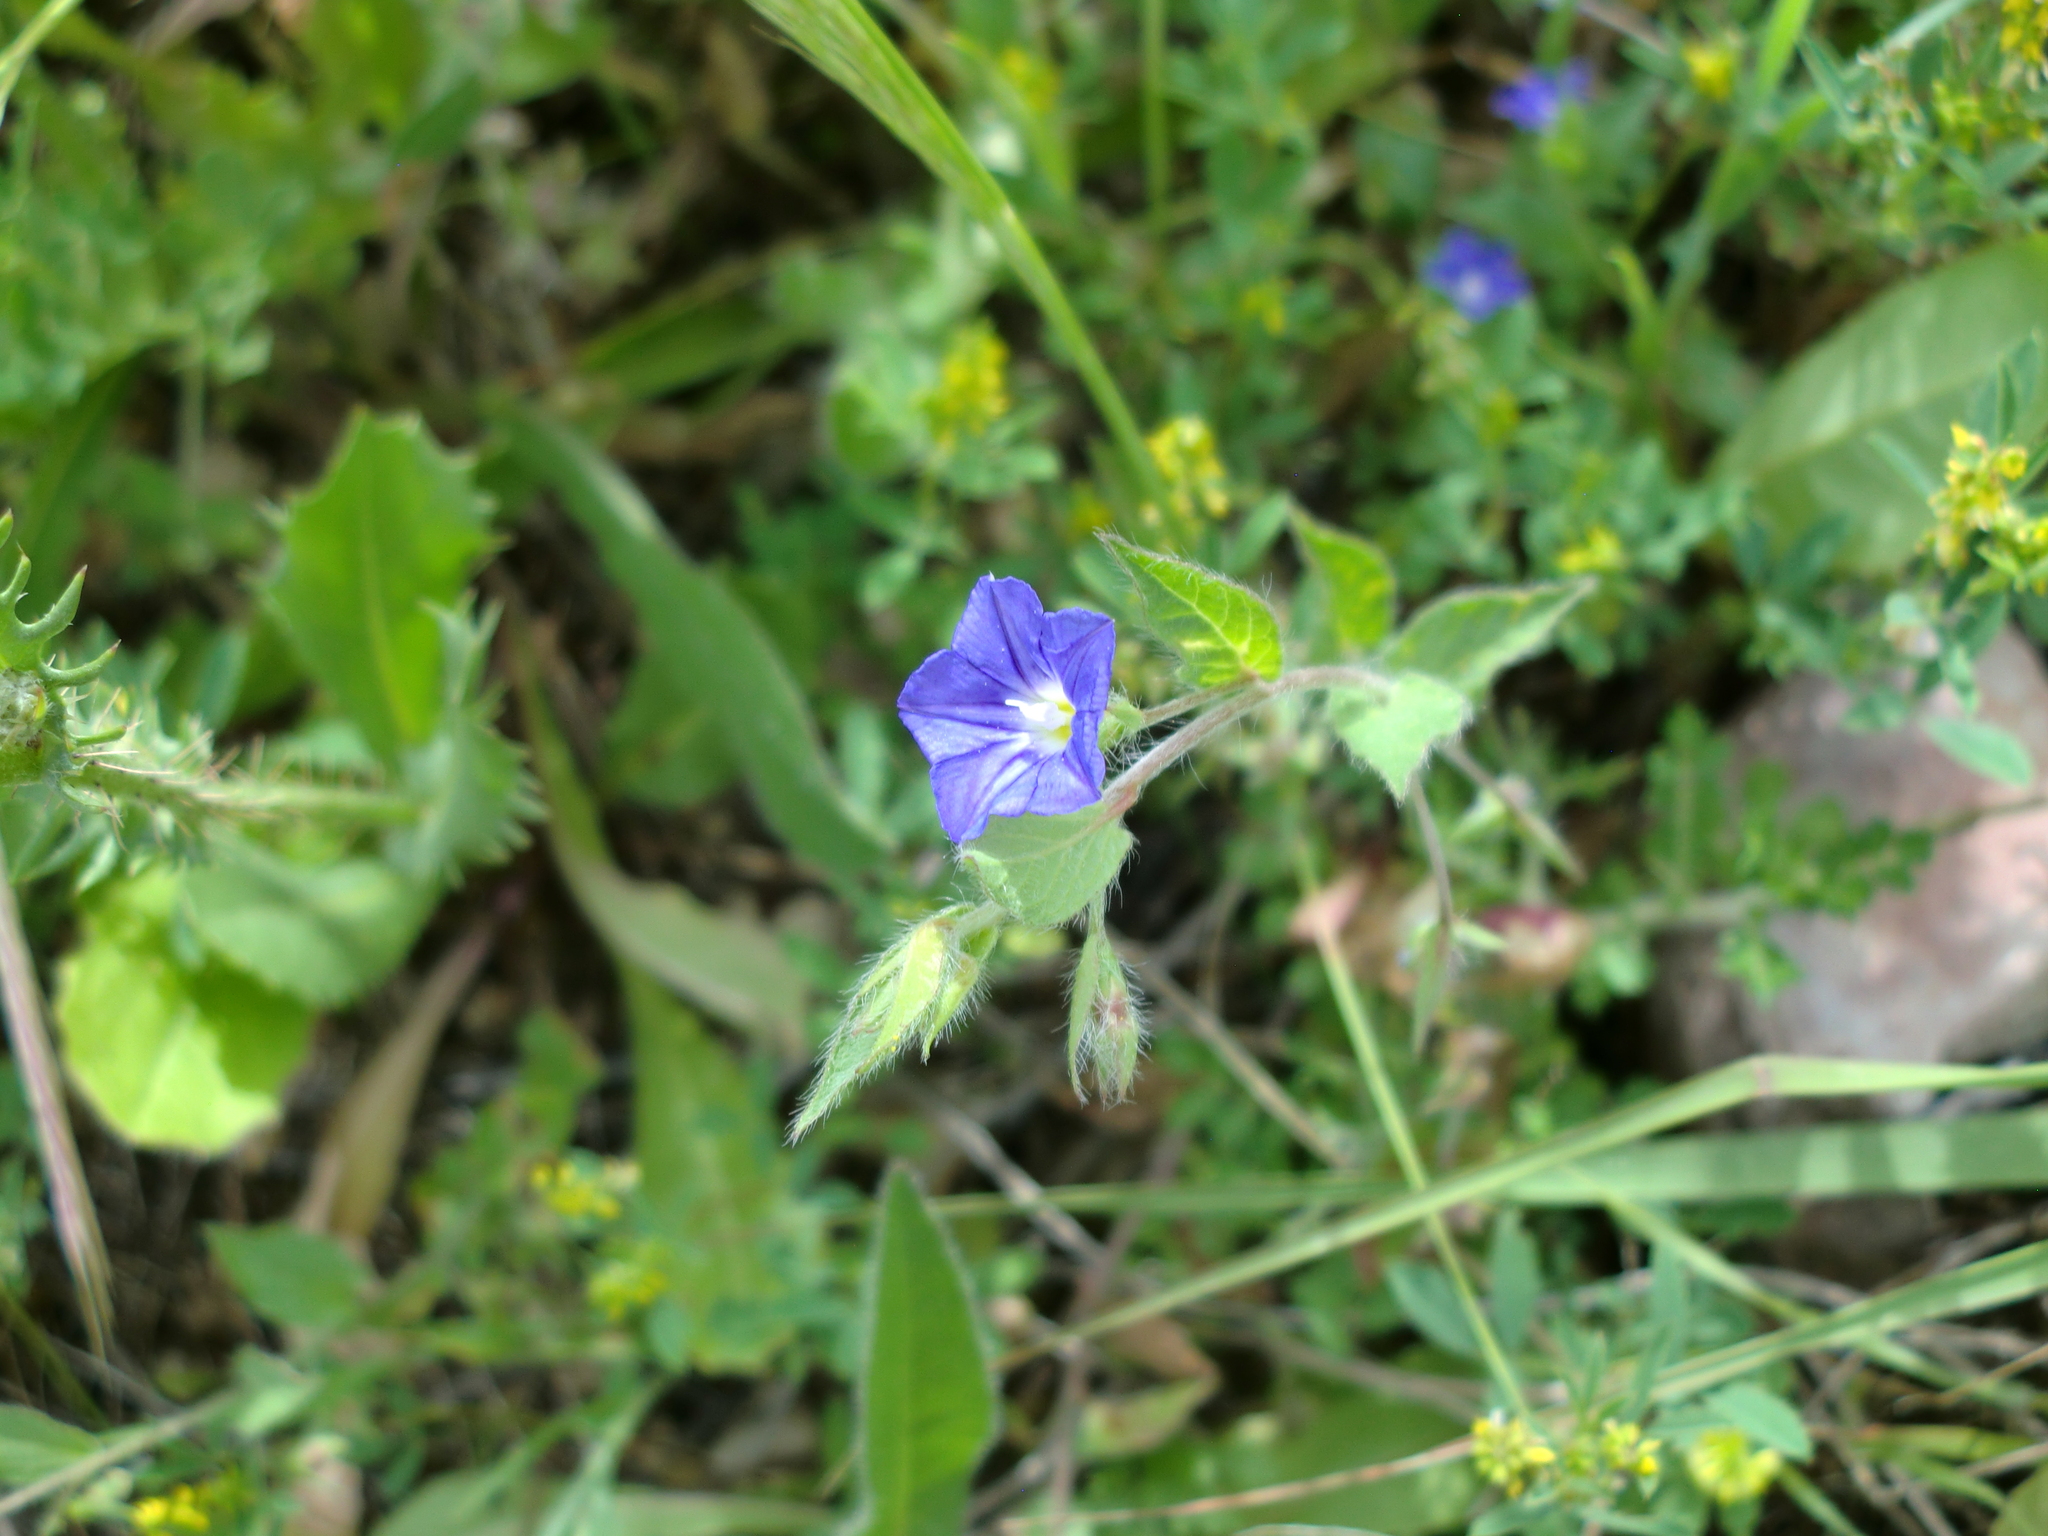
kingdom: Plantae
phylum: Tracheophyta
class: Magnoliopsida
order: Solanales
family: Convolvulaceae
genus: Convolvulus
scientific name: Convolvulus siculus
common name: Small blue-convolvulus
